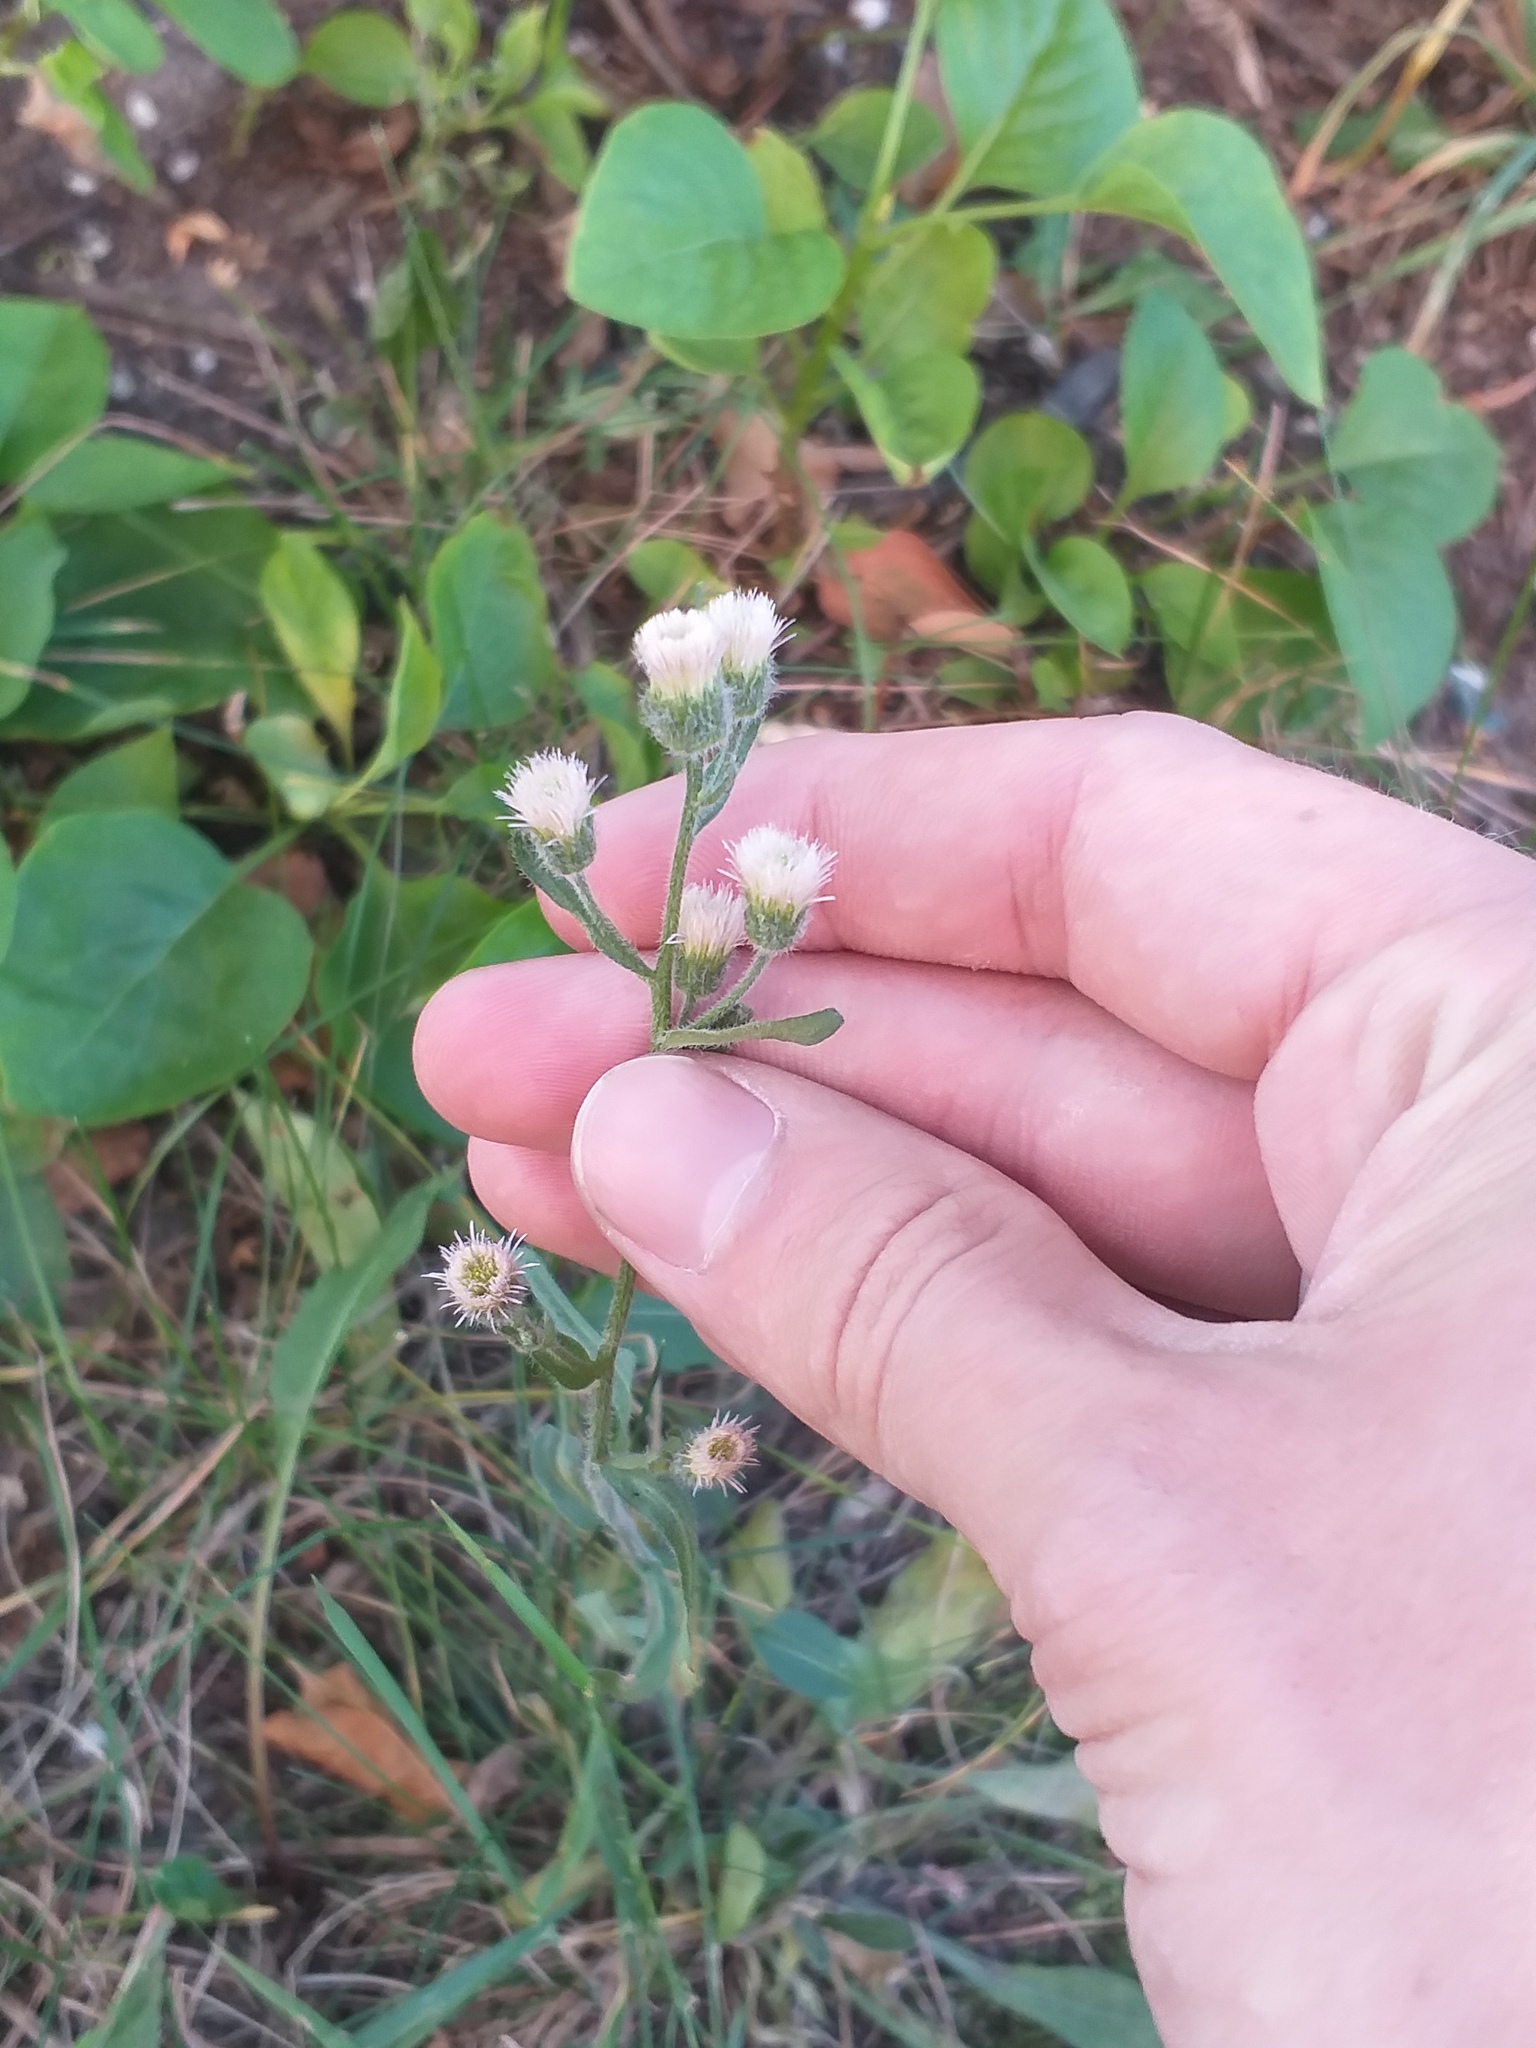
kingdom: Plantae
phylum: Tracheophyta
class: Magnoliopsida
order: Asterales
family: Asteraceae
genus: Erigeron
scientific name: Erigeron acris
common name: Blue fleabane
